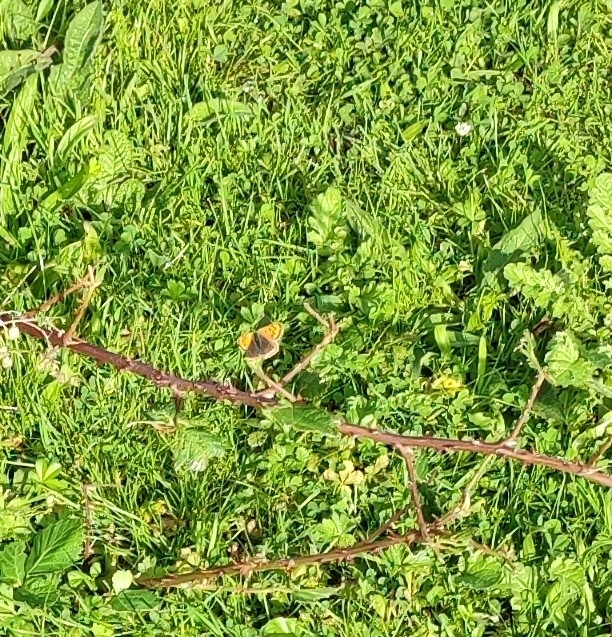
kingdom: Animalia
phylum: Arthropoda
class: Insecta
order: Lepidoptera
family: Lycaenidae
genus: Lycaena
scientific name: Lycaena phlaeas
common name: Small copper
